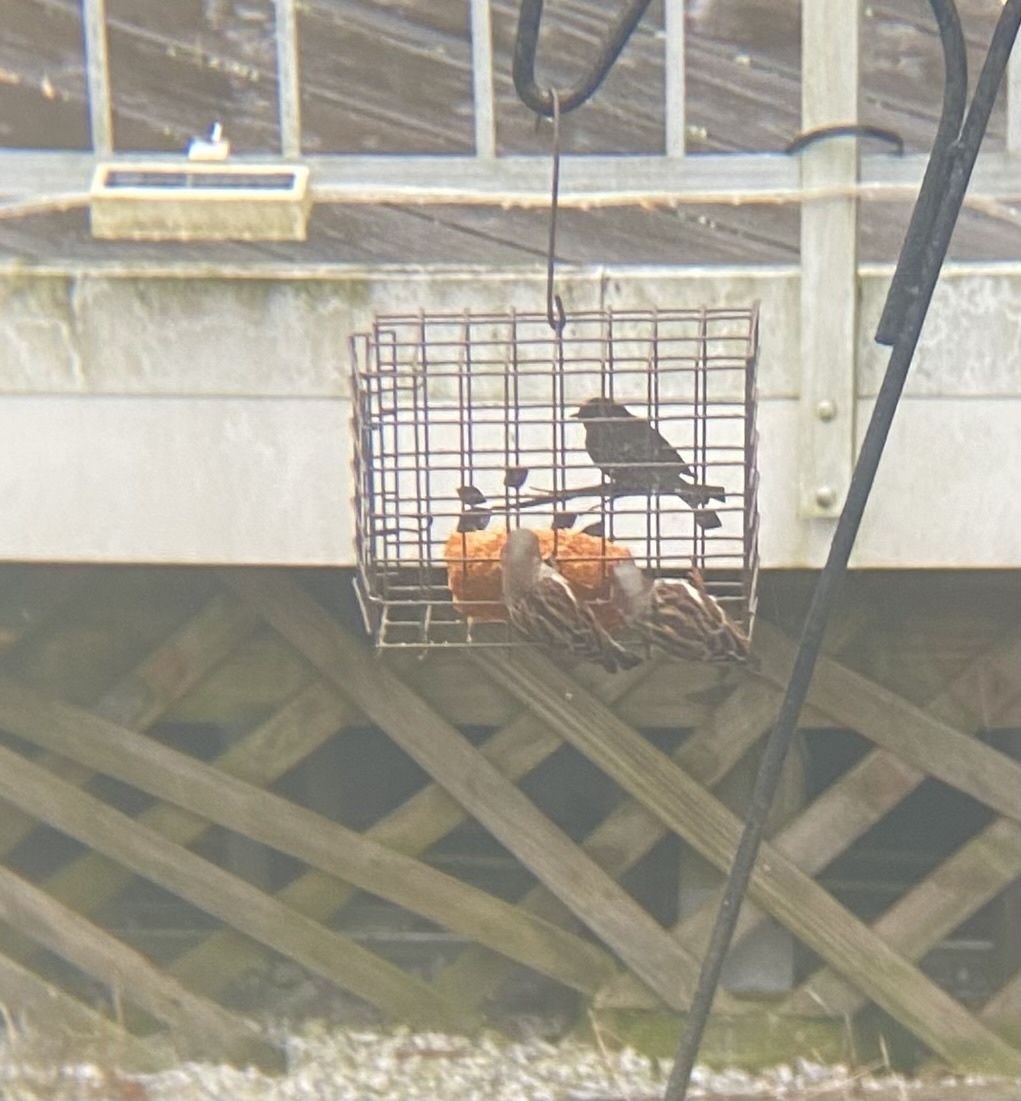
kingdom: Animalia
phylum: Chordata
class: Aves
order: Passeriformes
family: Passeridae
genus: Passer
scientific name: Passer domesticus
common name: House sparrow
